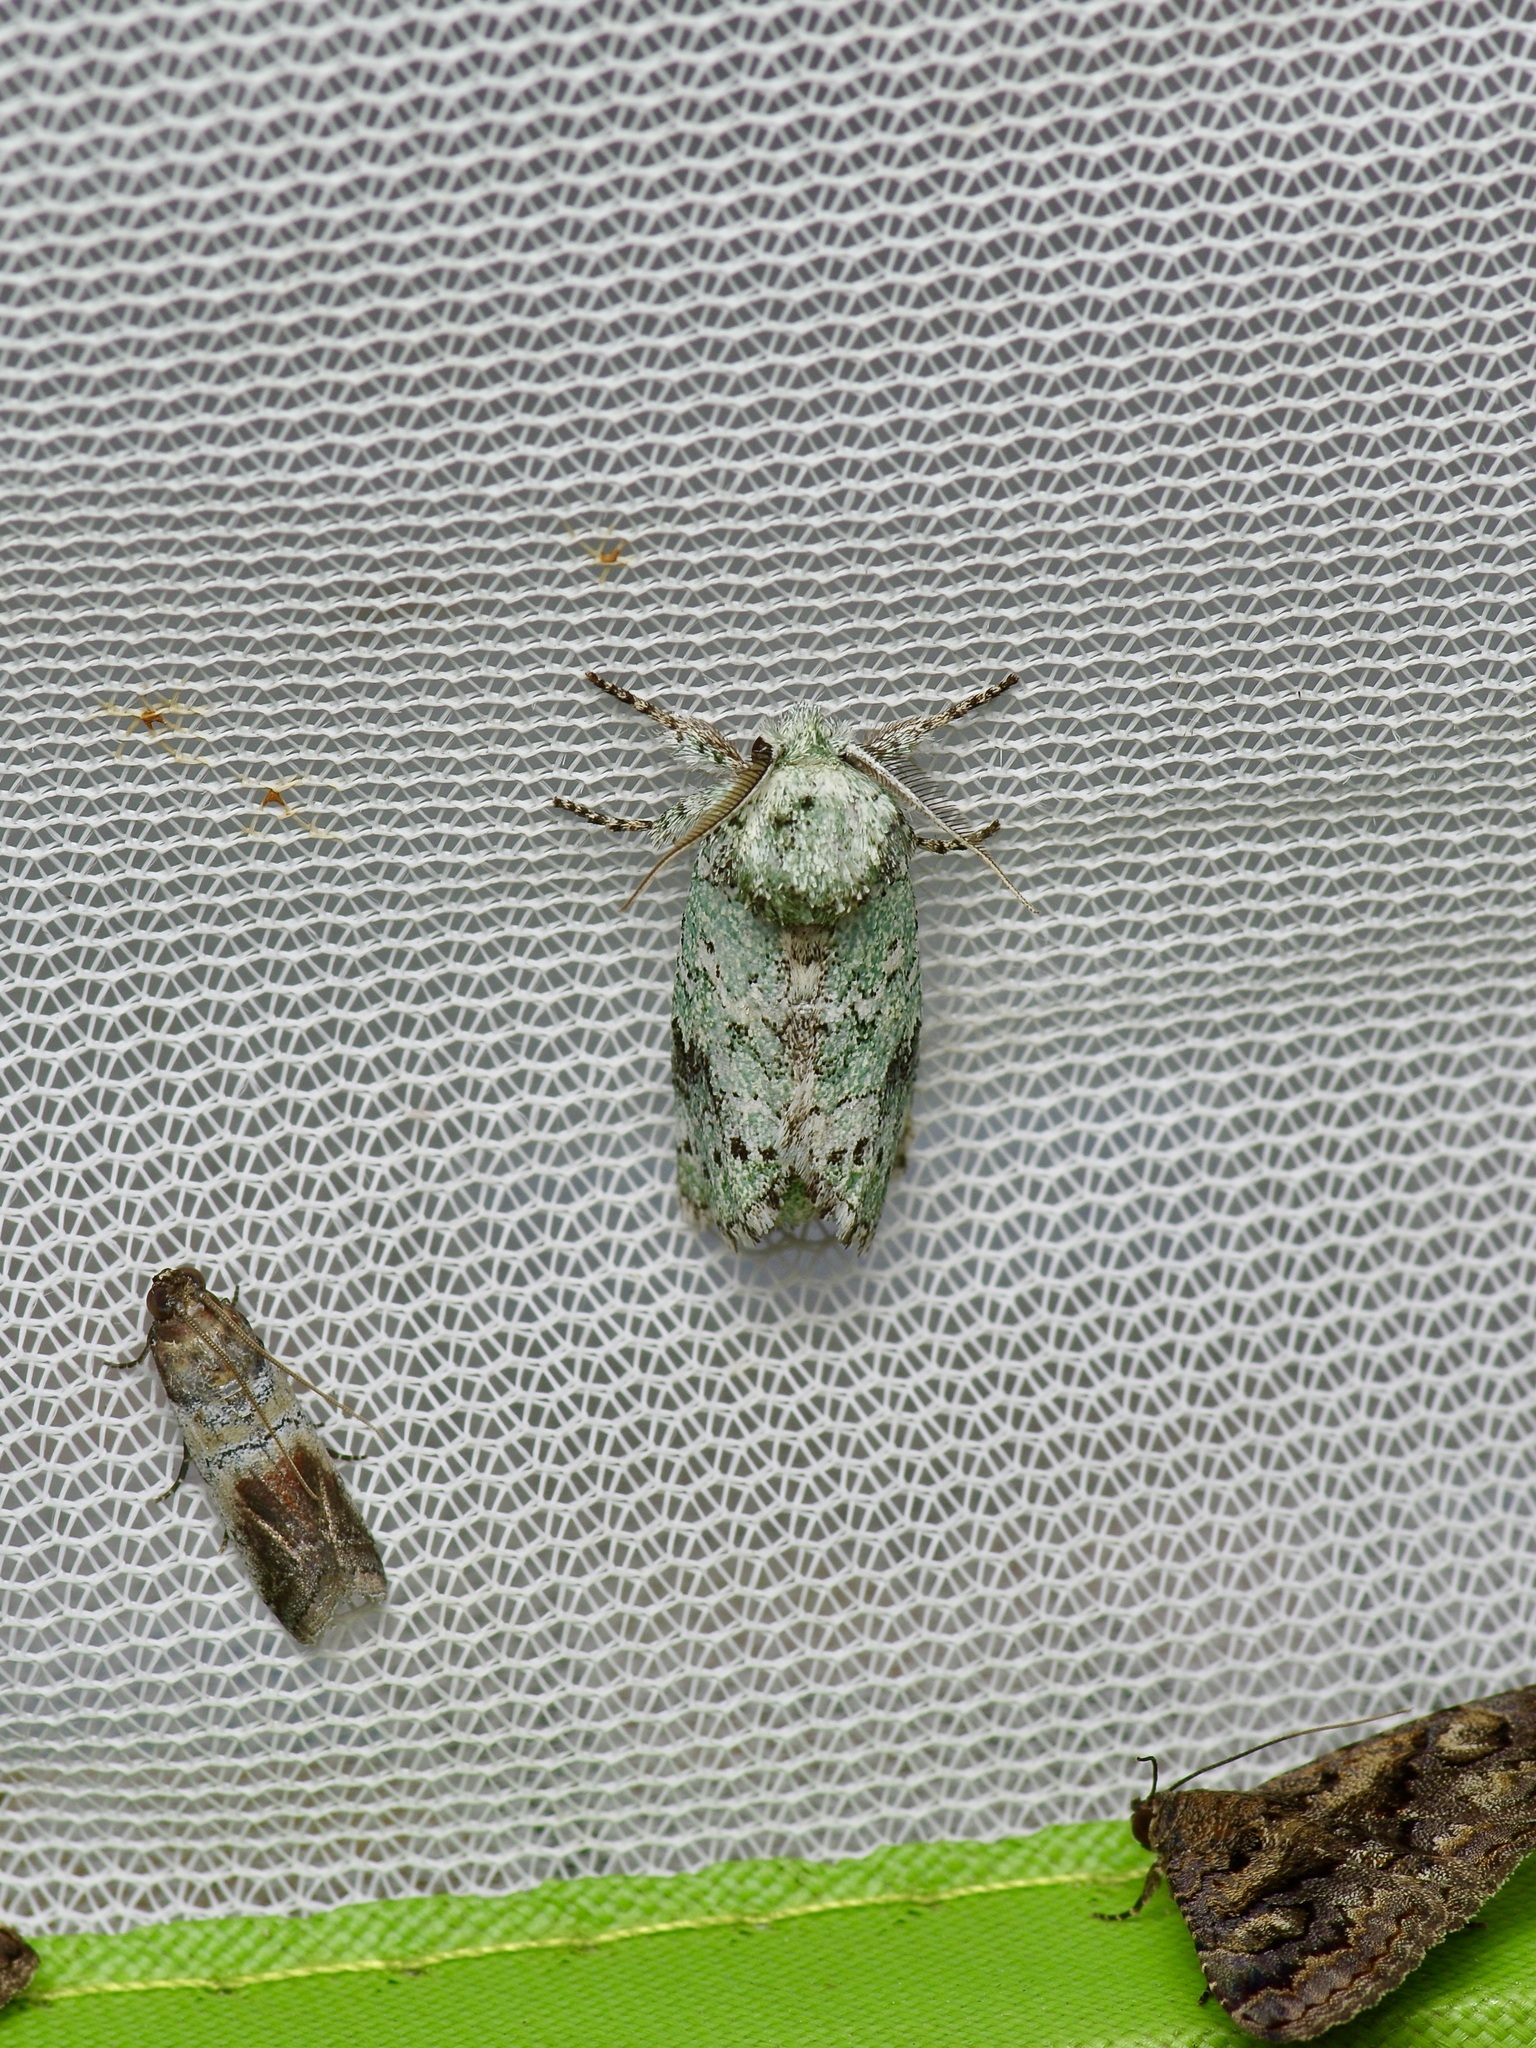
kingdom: Animalia
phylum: Arthropoda
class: Insecta
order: Lepidoptera
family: Notodontidae
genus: Litodonta
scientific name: Litodonta hydromeli
